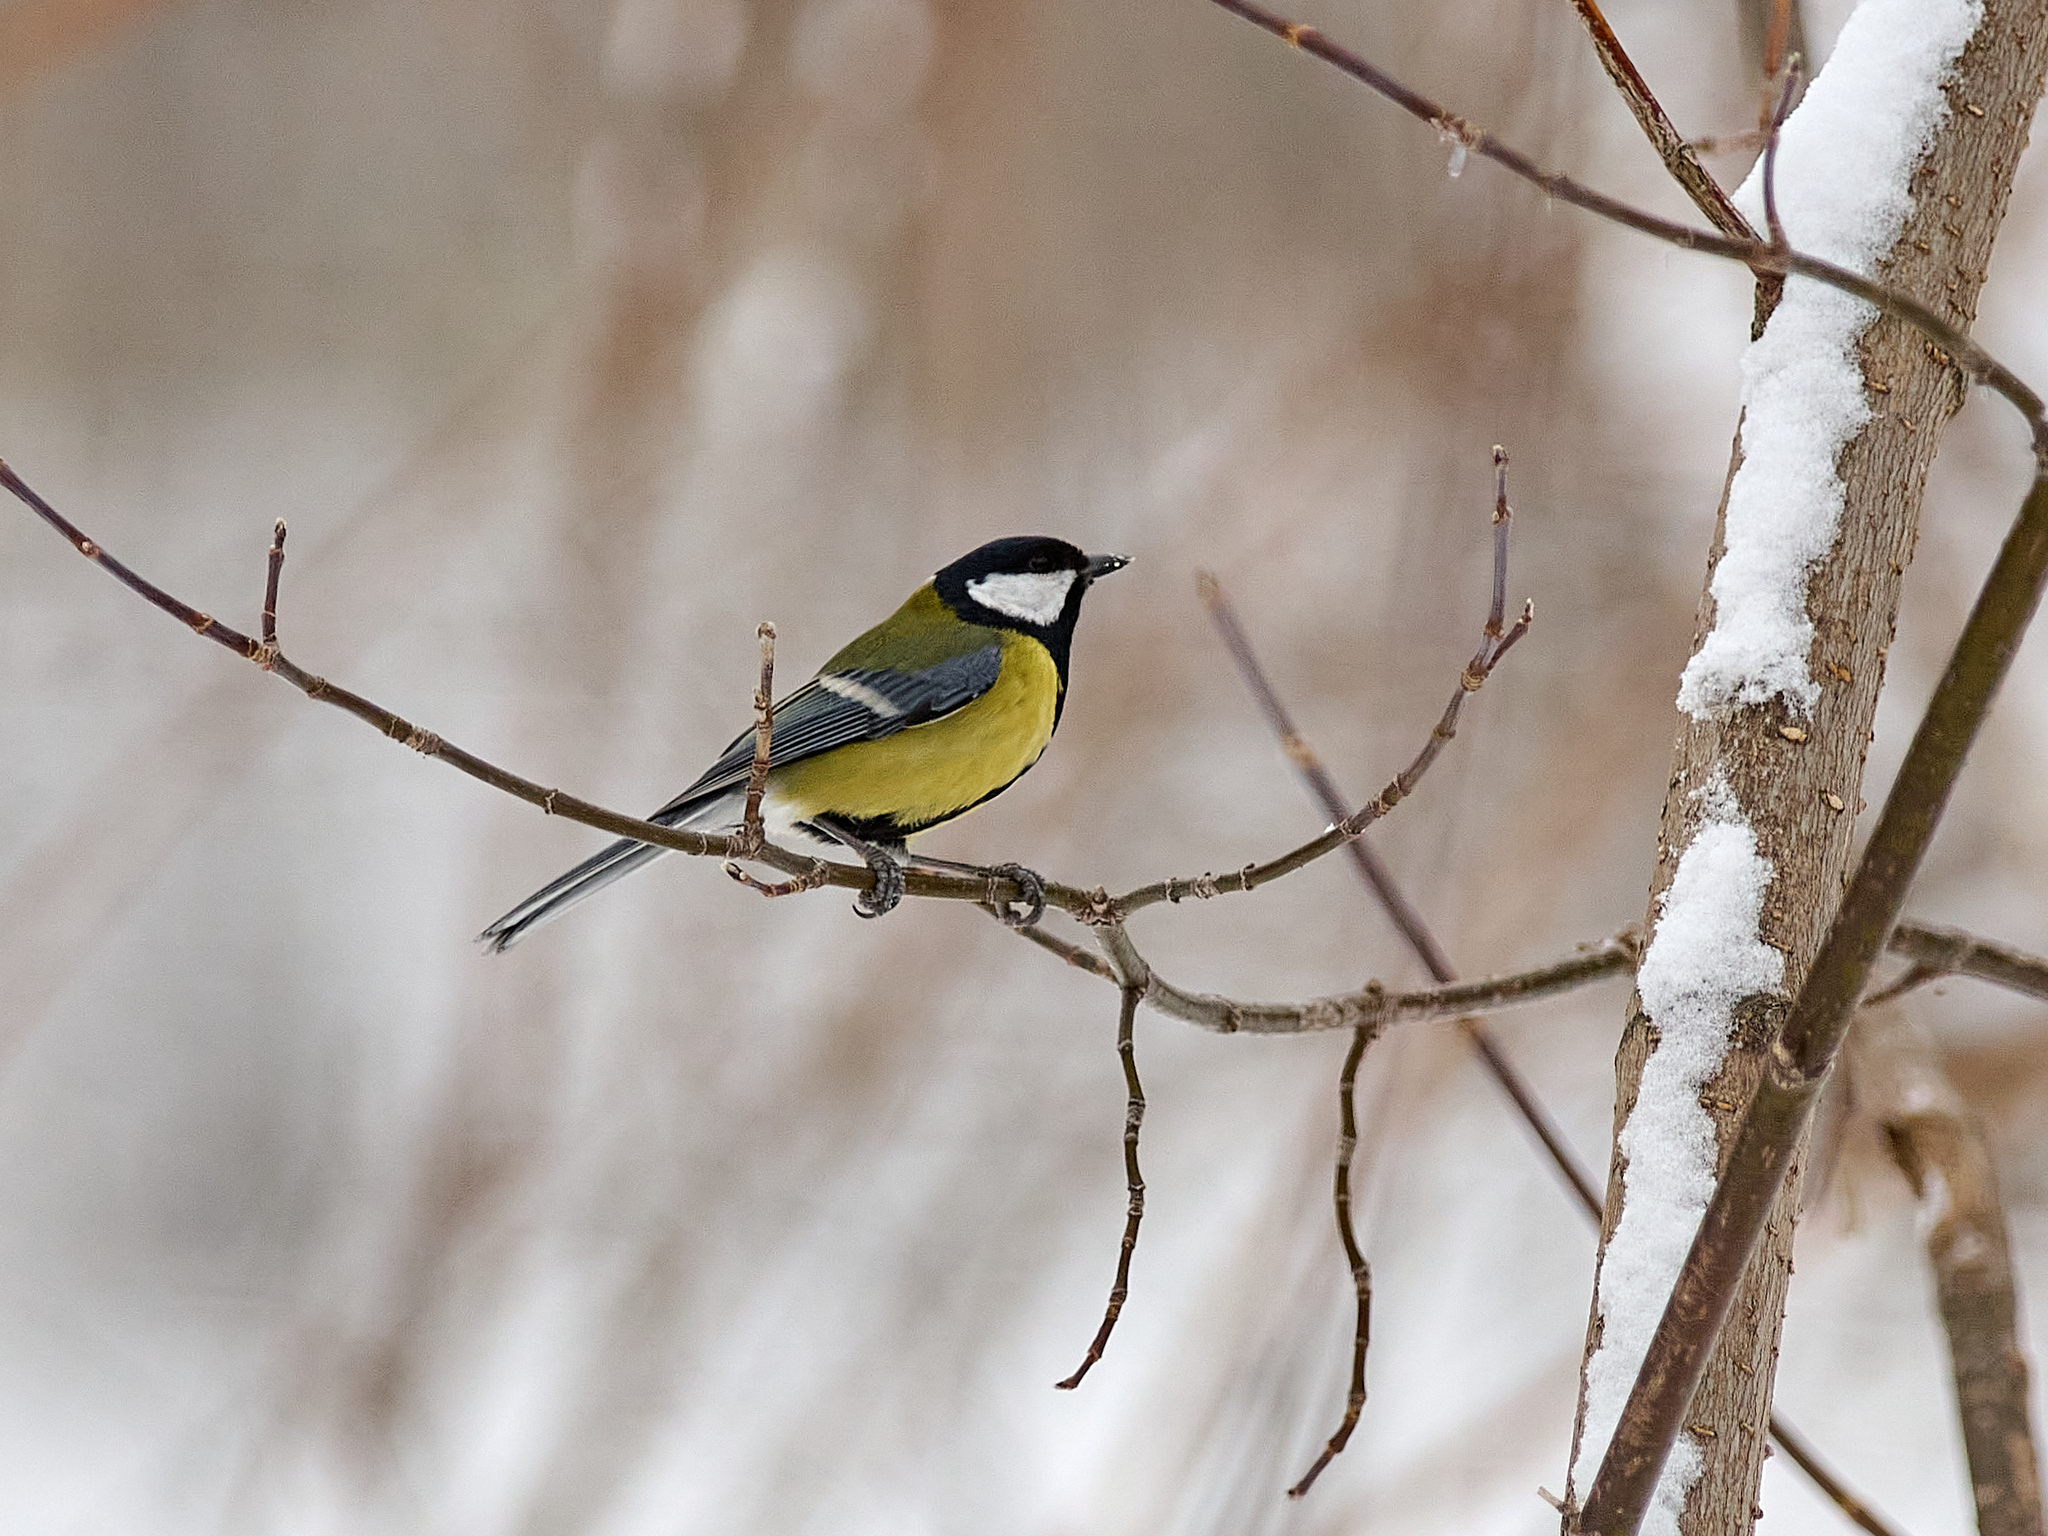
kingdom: Animalia
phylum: Chordata
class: Aves
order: Passeriformes
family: Paridae
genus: Parus
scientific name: Parus major
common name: Great tit
